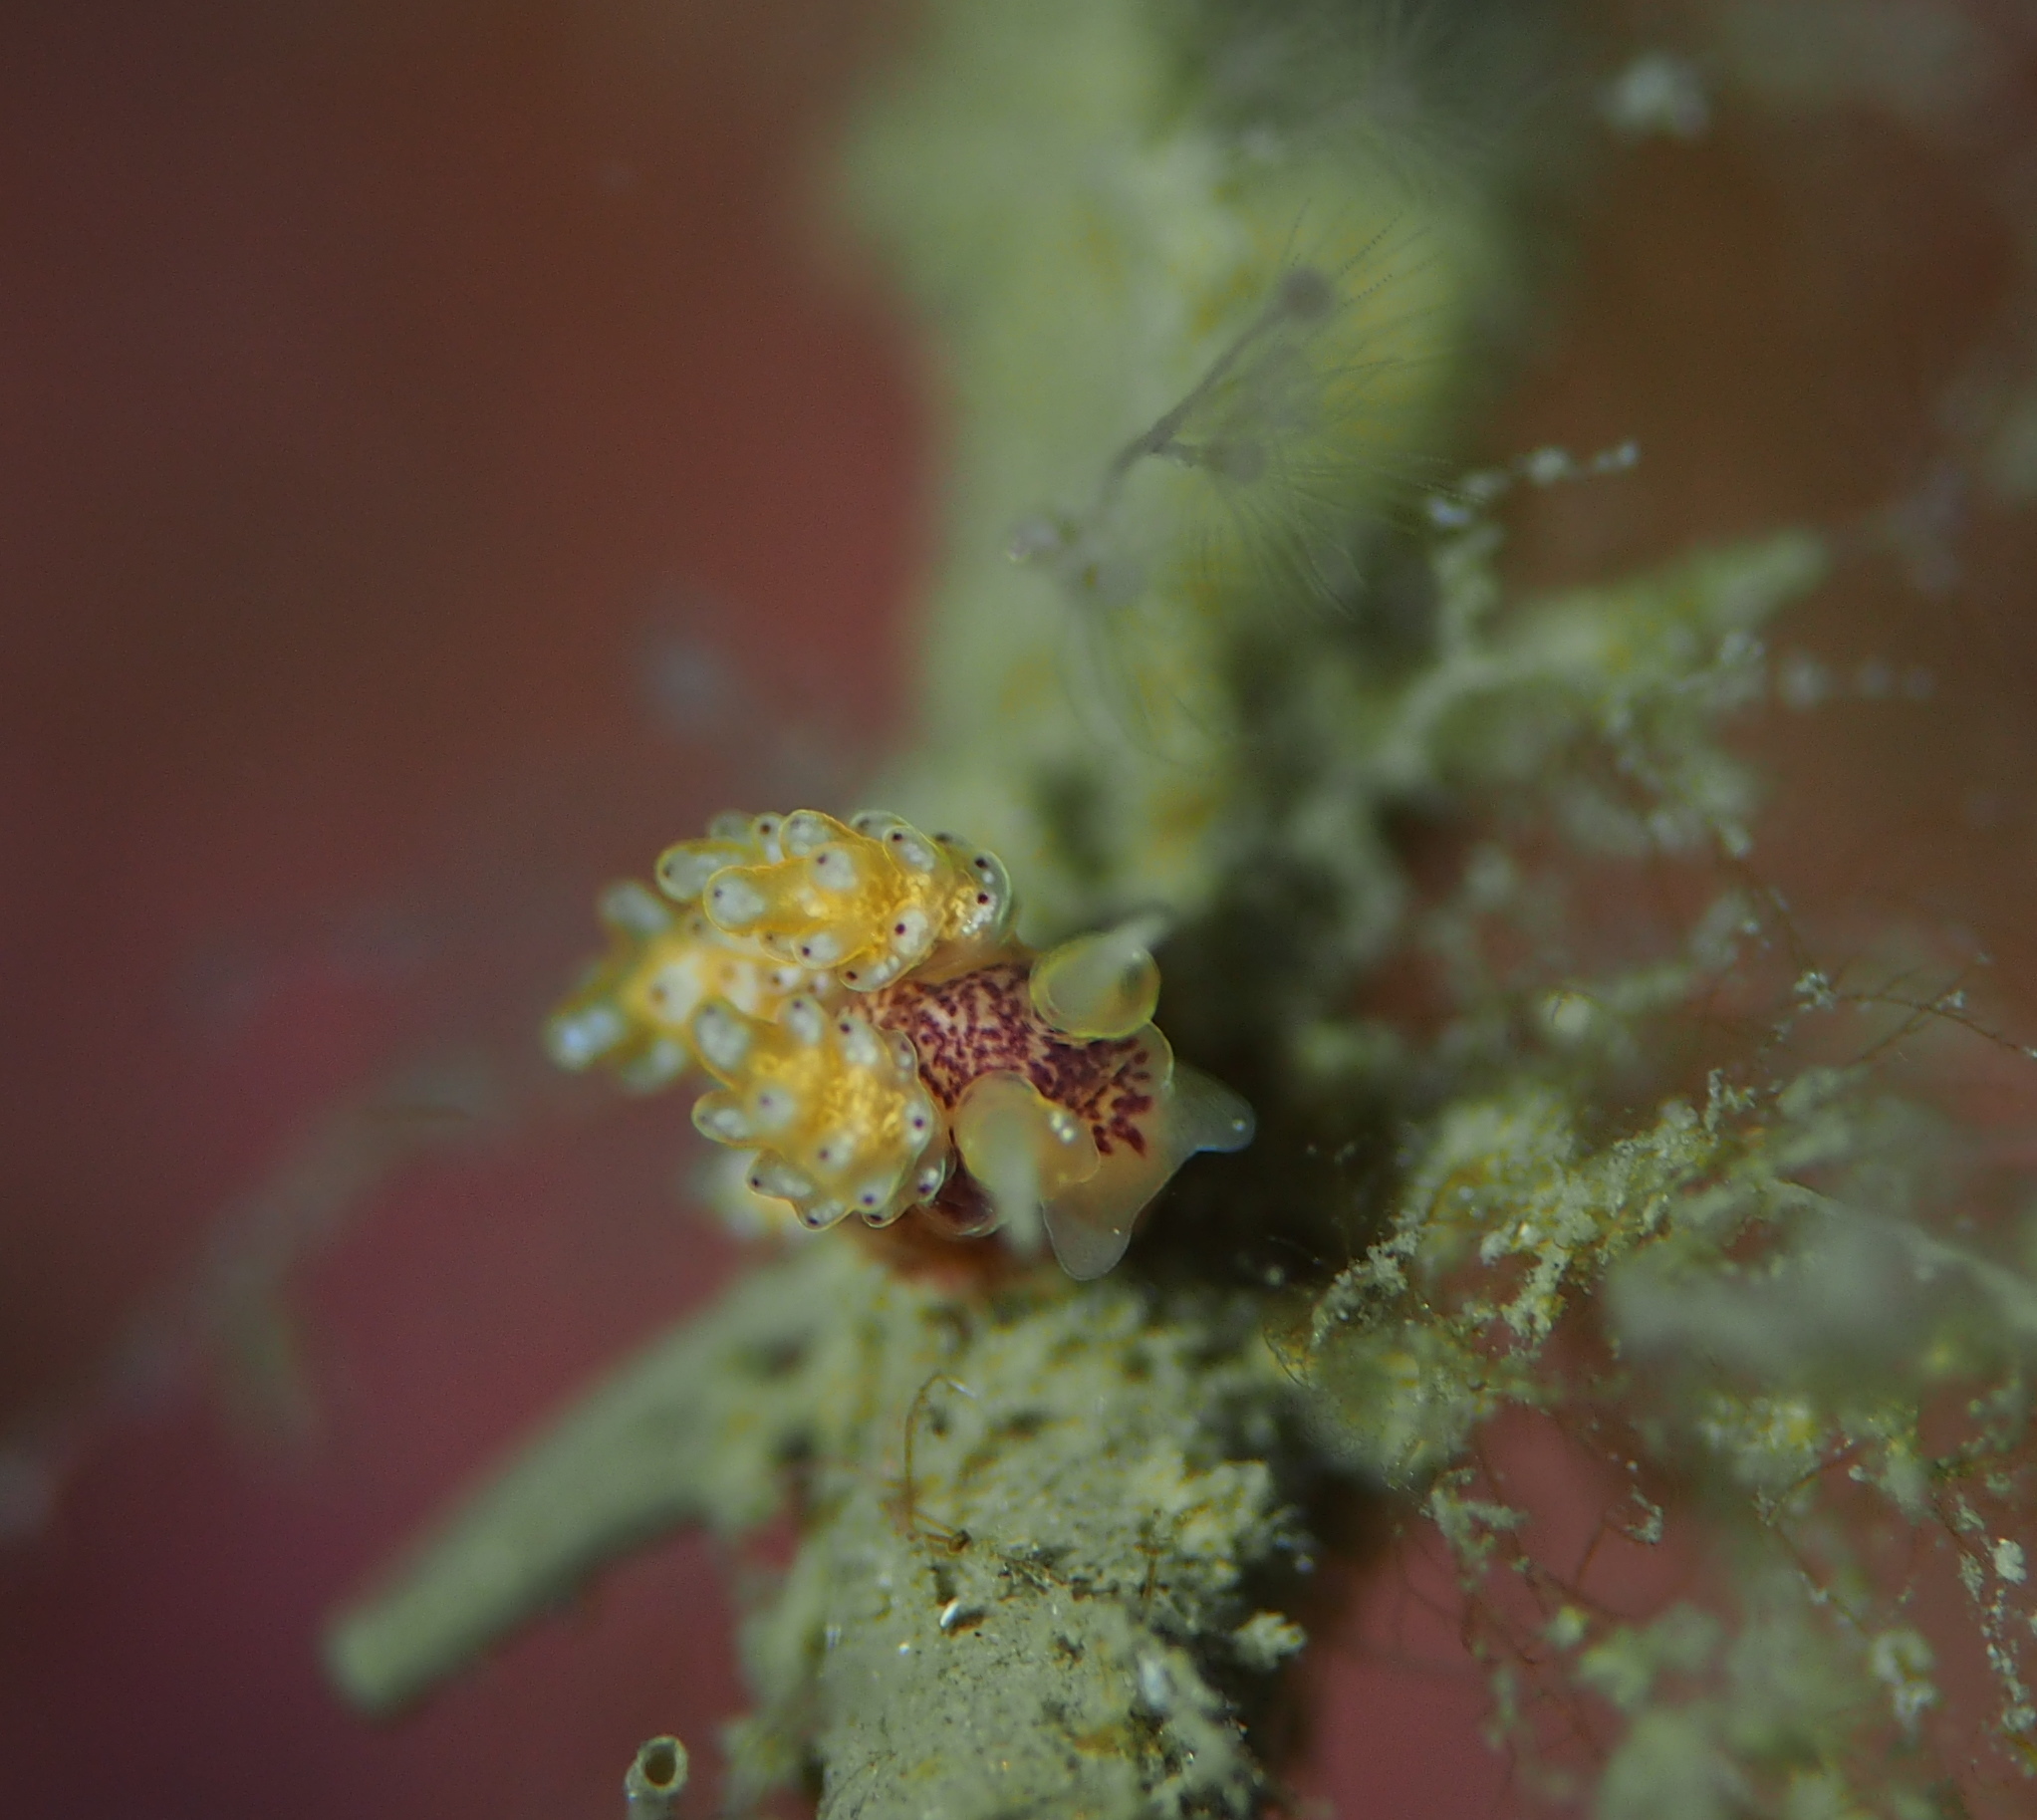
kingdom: Animalia
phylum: Mollusca
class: Gastropoda
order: Nudibranchia
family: Dotidae
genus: Doto
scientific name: Doto dunnei
